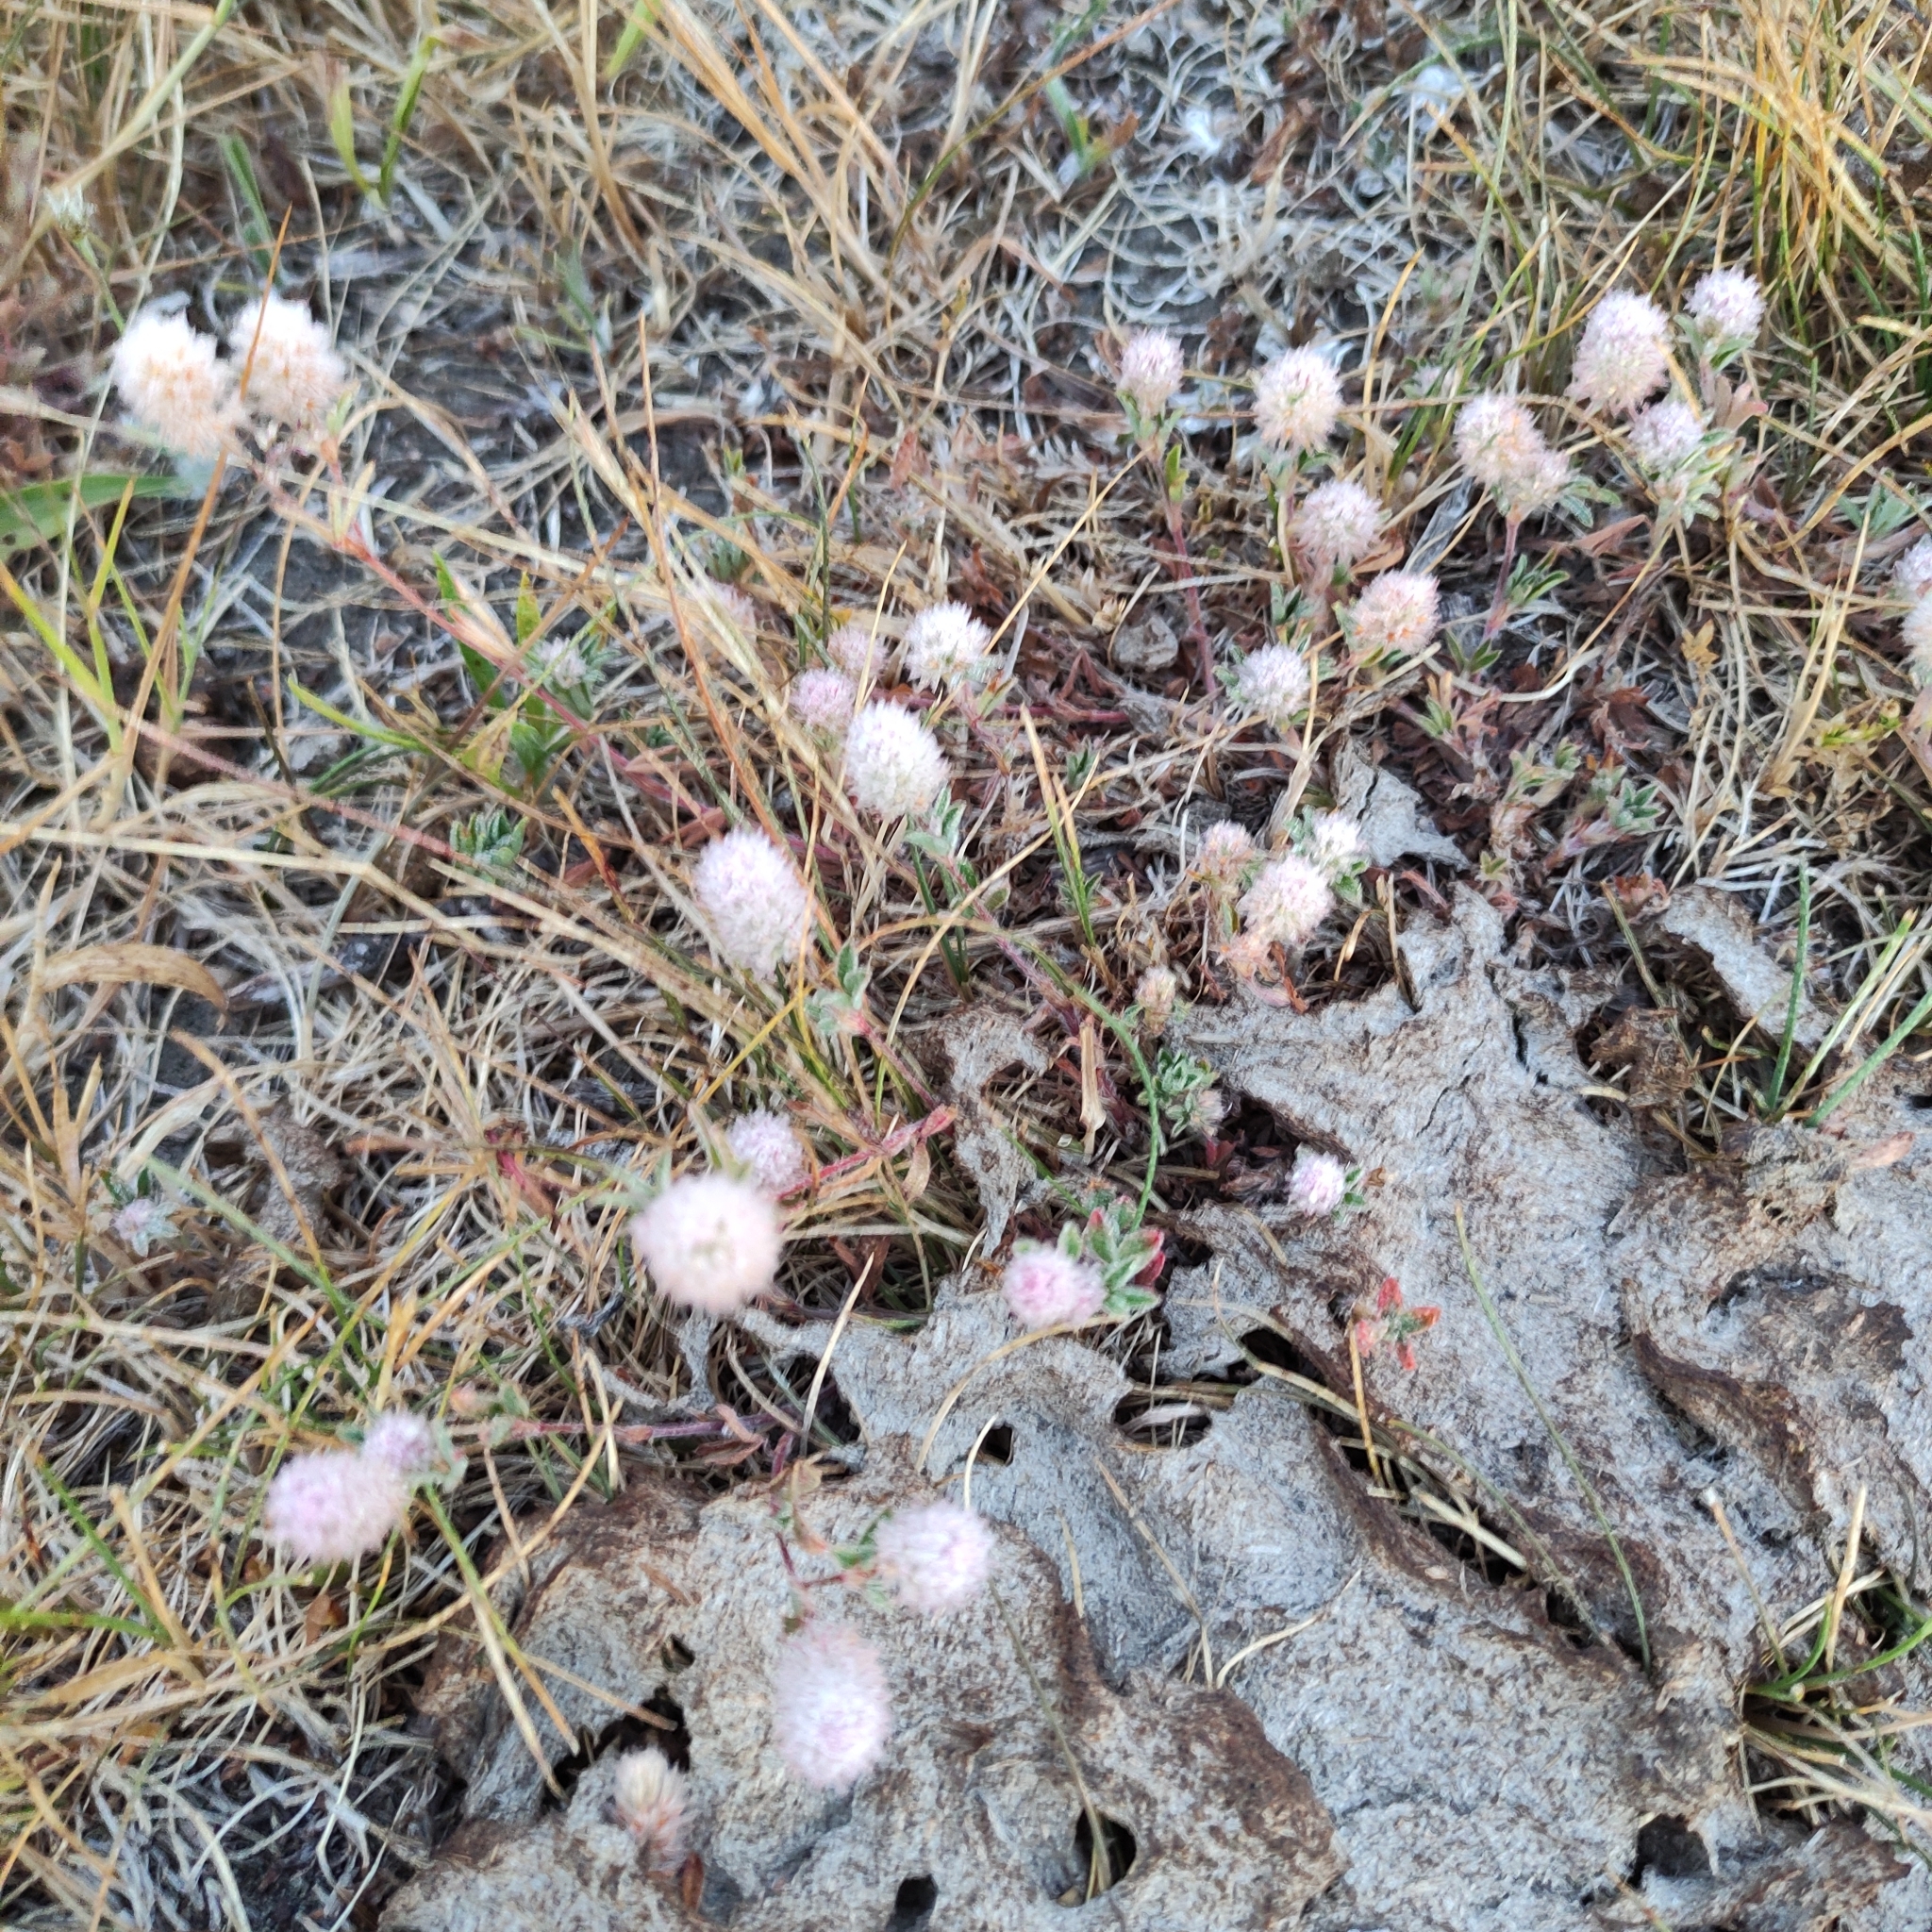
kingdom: Plantae
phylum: Tracheophyta
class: Magnoliopsida
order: Fabales
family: Fabaceae
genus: Trifolium
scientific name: Trifolium arvense
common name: Hare's-foot clover
